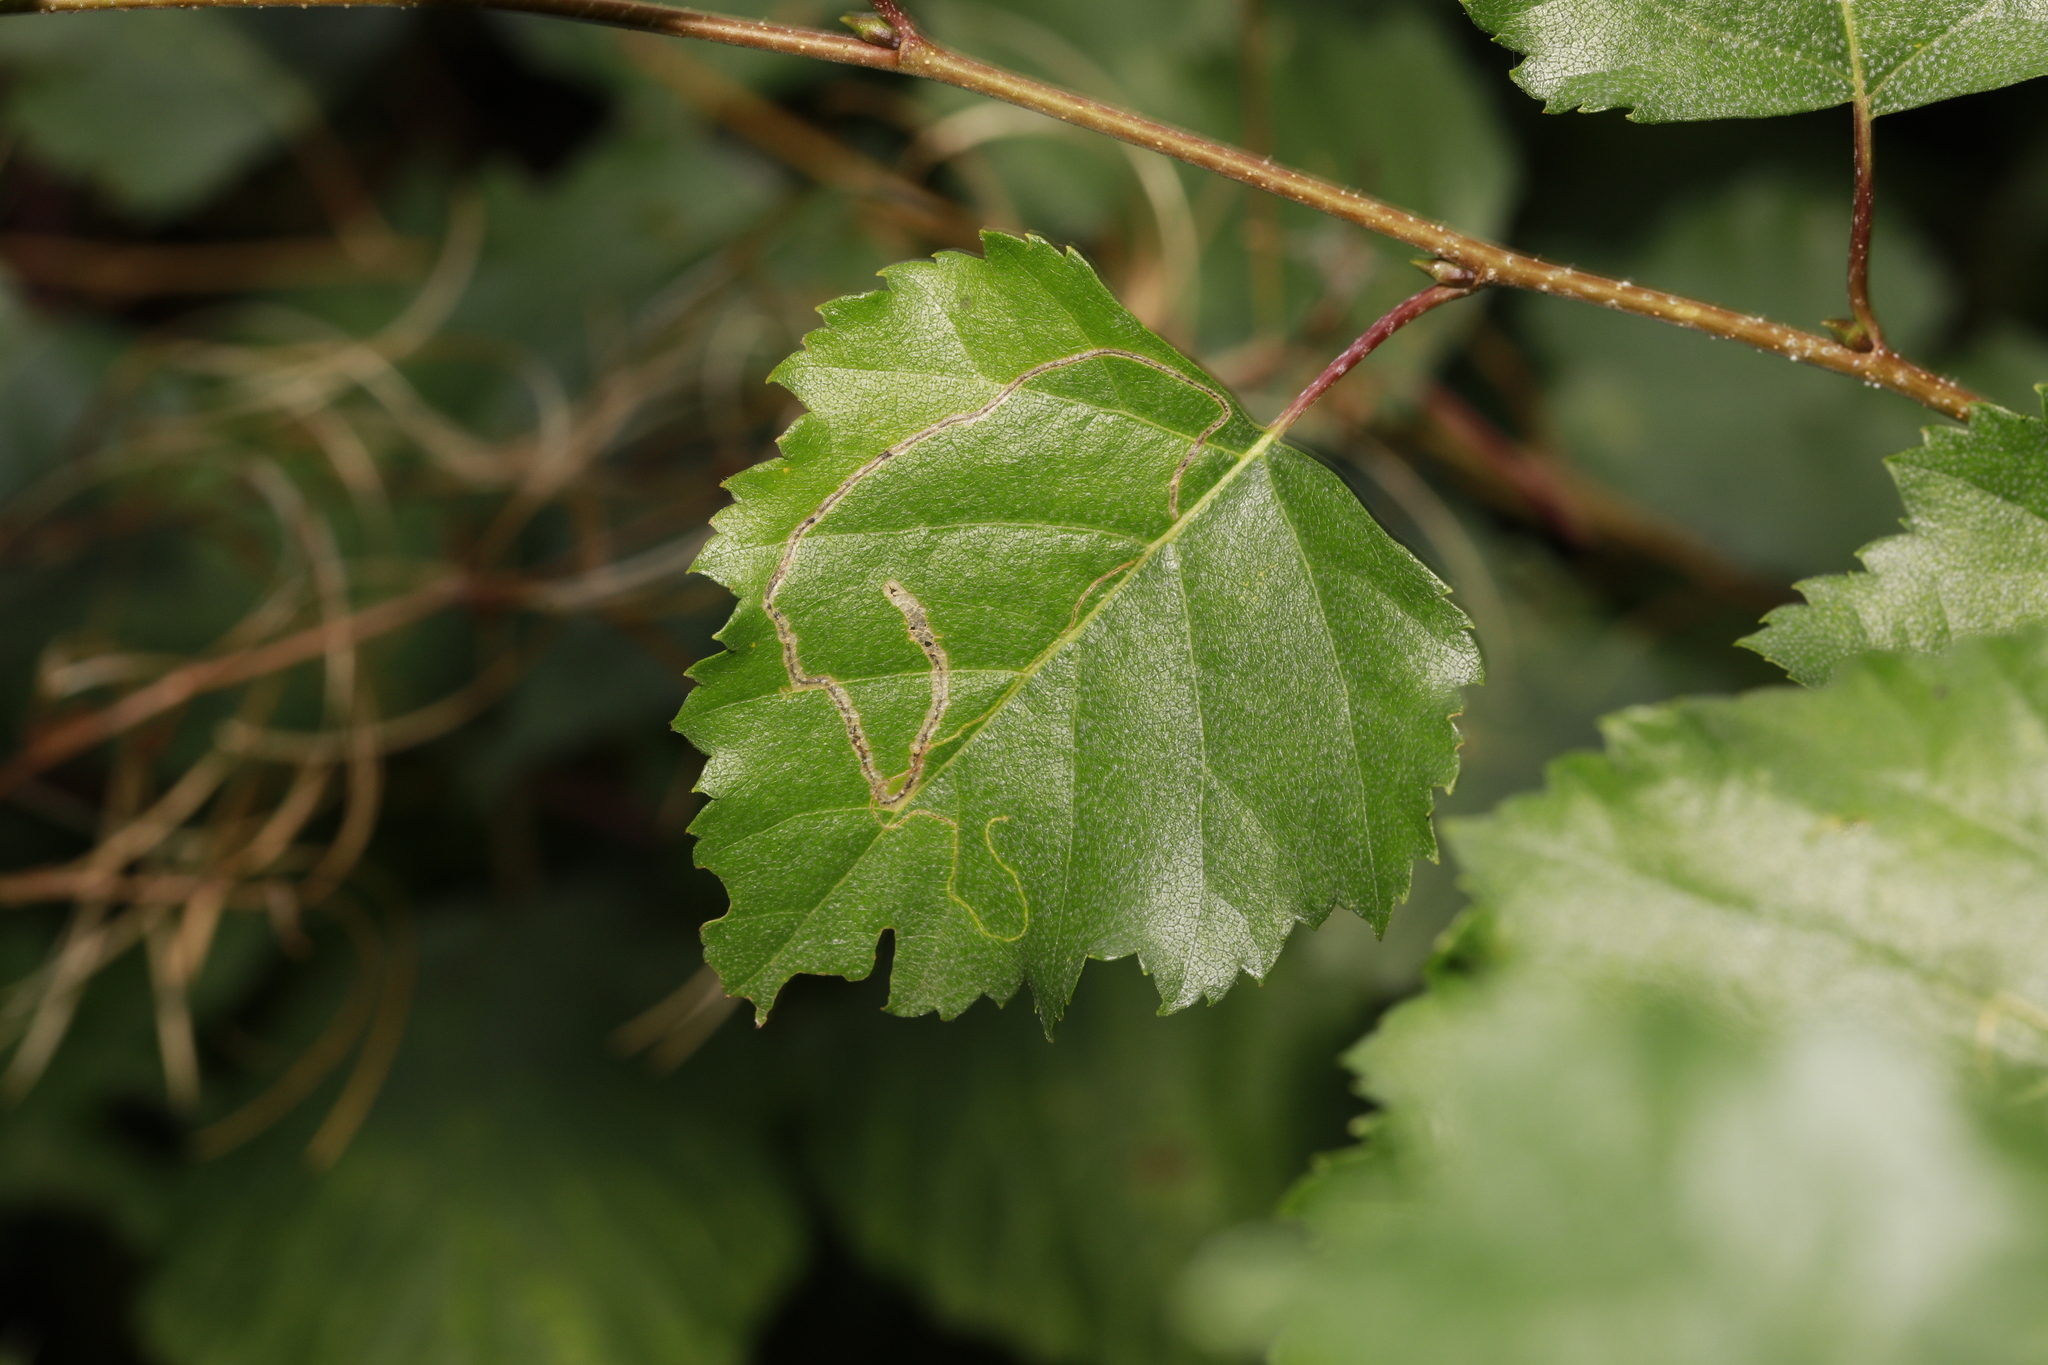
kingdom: Animalia
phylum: Arthropoda
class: Insecta
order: Lepidoptera
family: Lyonetiidae
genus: Lyonetia
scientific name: Lyonetia clerkella
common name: Apple leaf miner
